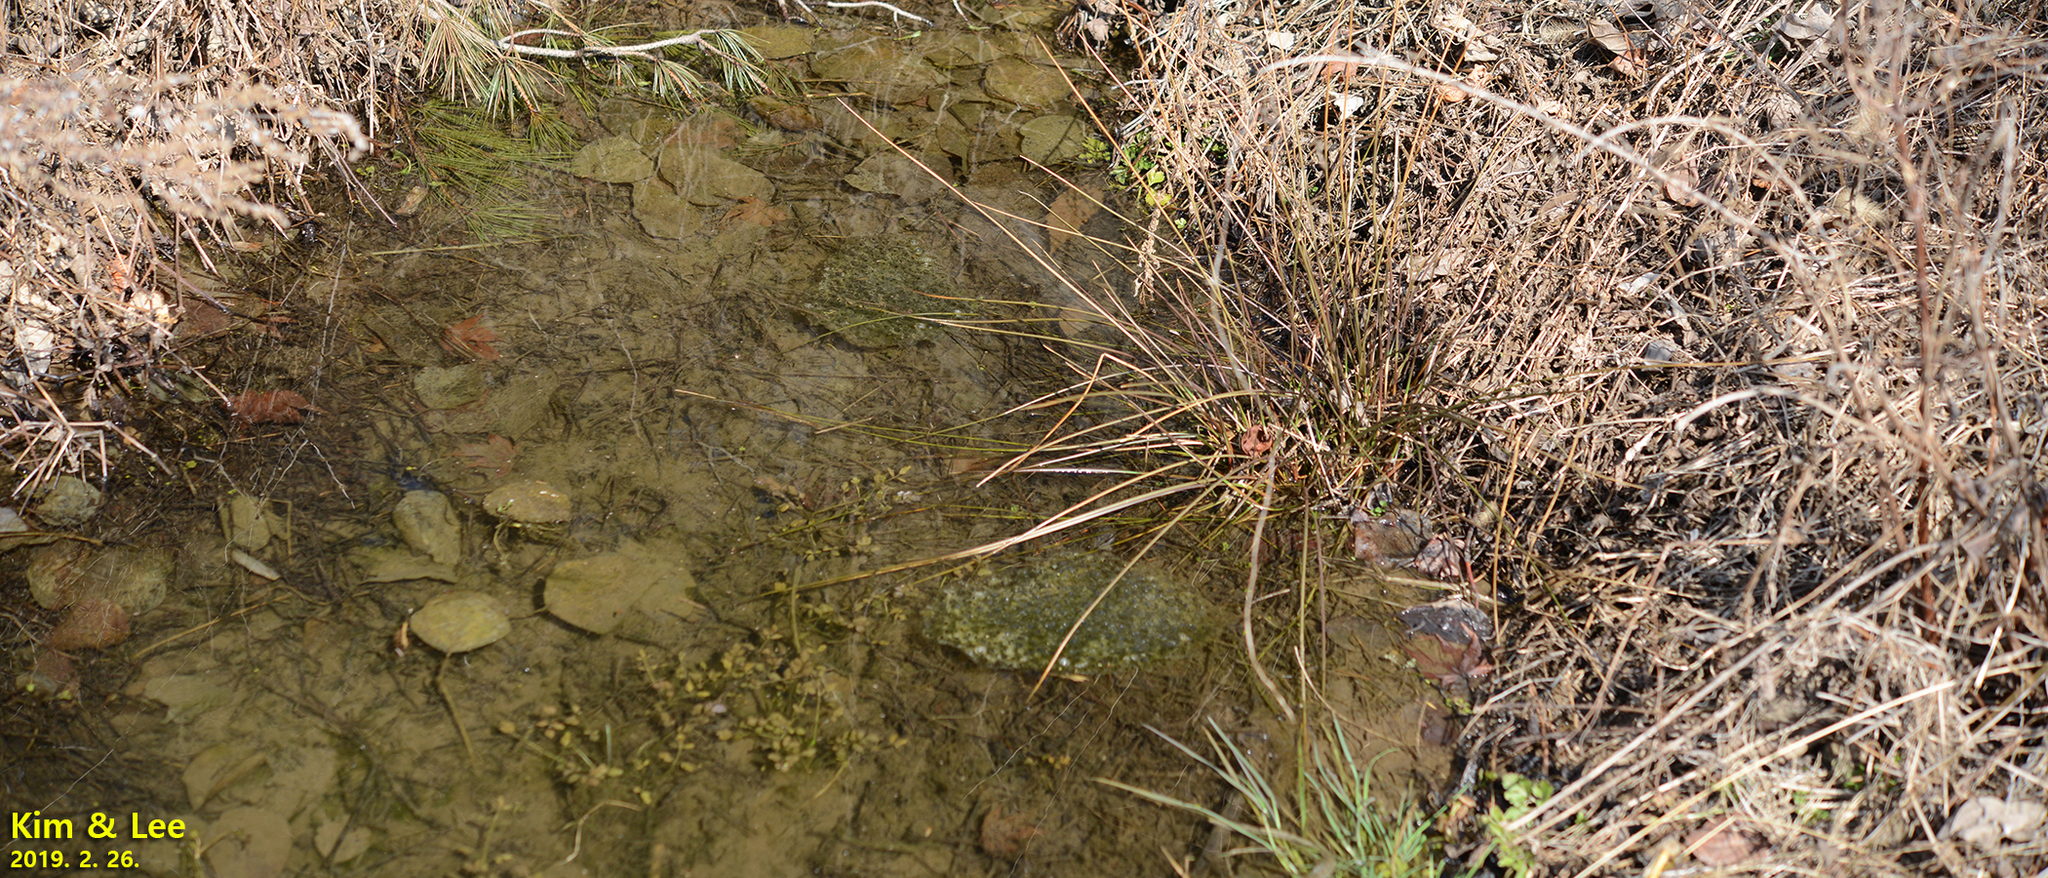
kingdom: Animalia
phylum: Chordata
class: Amphibia
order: Anura
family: Ranidae
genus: Rana
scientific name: Rana uenoi
